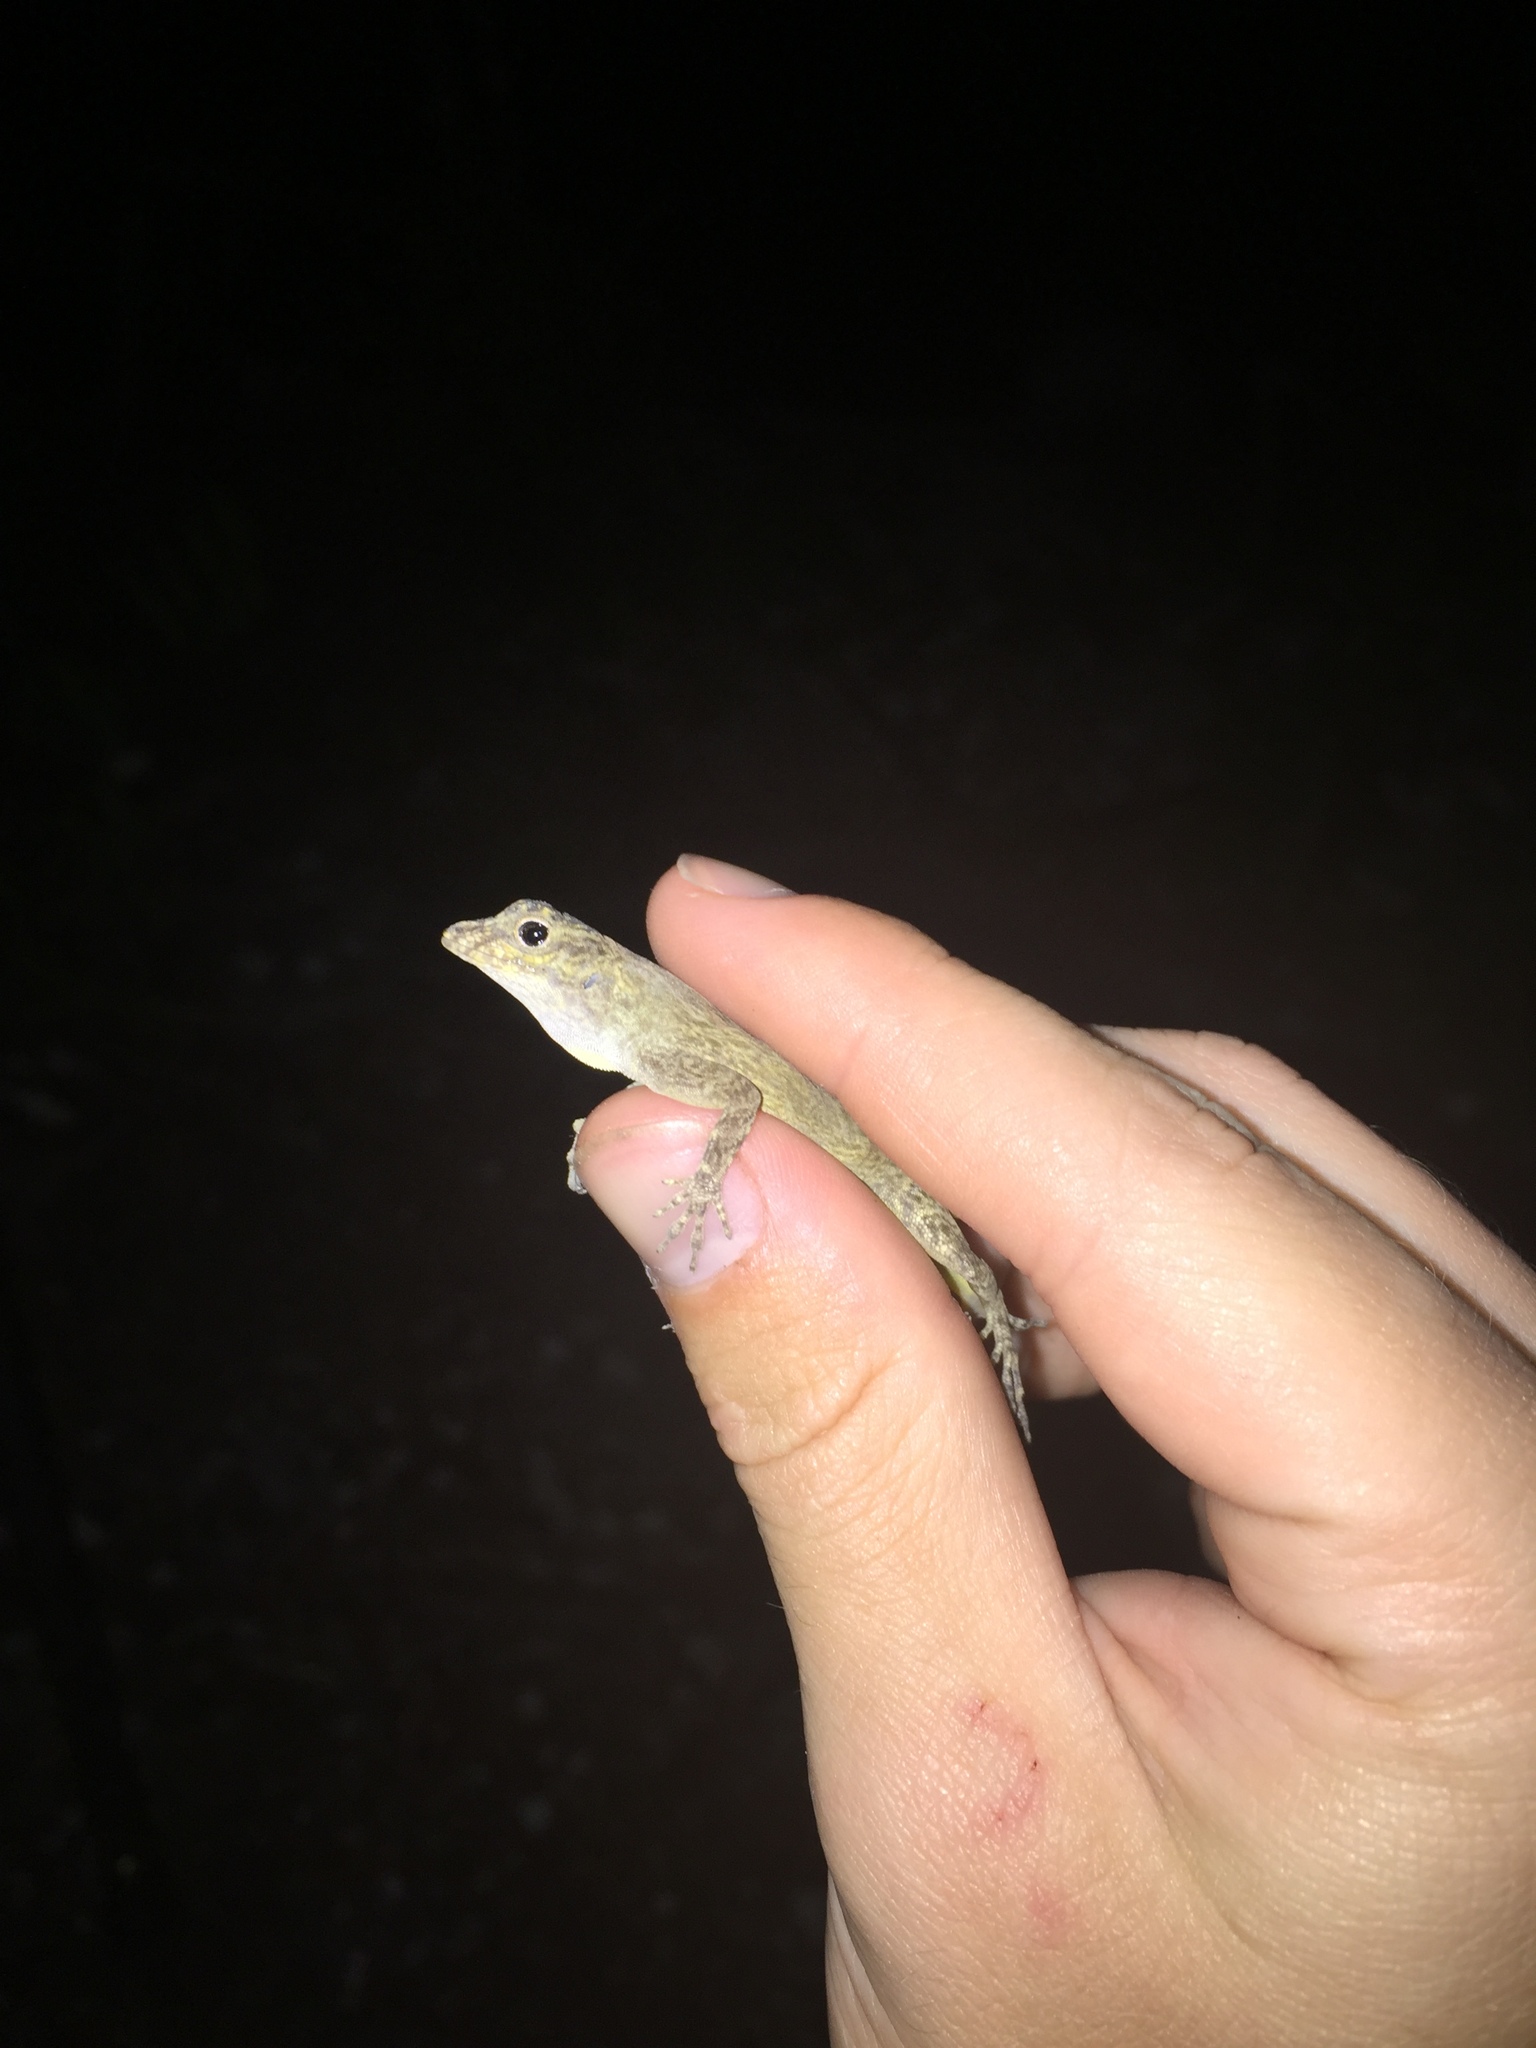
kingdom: Animalia
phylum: Chordata
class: Squamata
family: Dactyloidae
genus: Anolis
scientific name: Anolis distichus
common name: Bark anole
